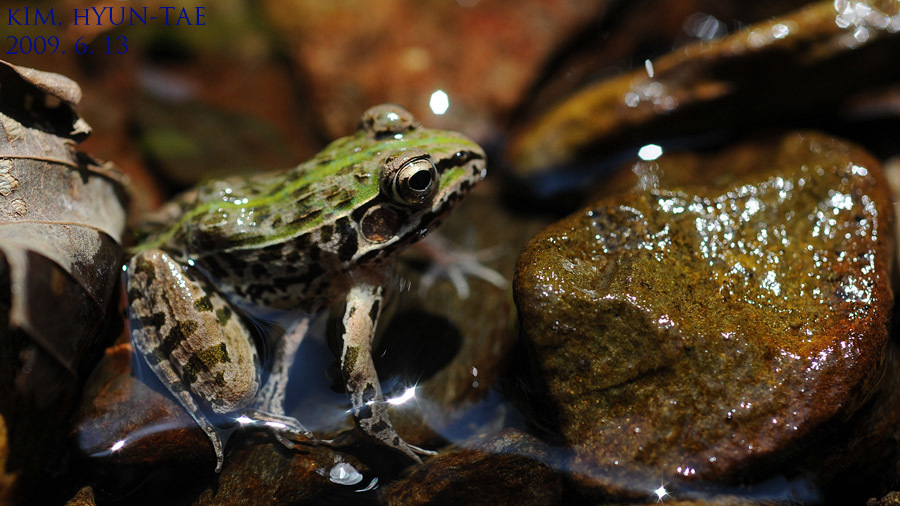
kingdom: Animalia
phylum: Chordata
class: Amphibia
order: Anura
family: Ranidae
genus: Pelophylax
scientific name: Pelophylax nigromaculatus
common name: Black-spotted pond frog
